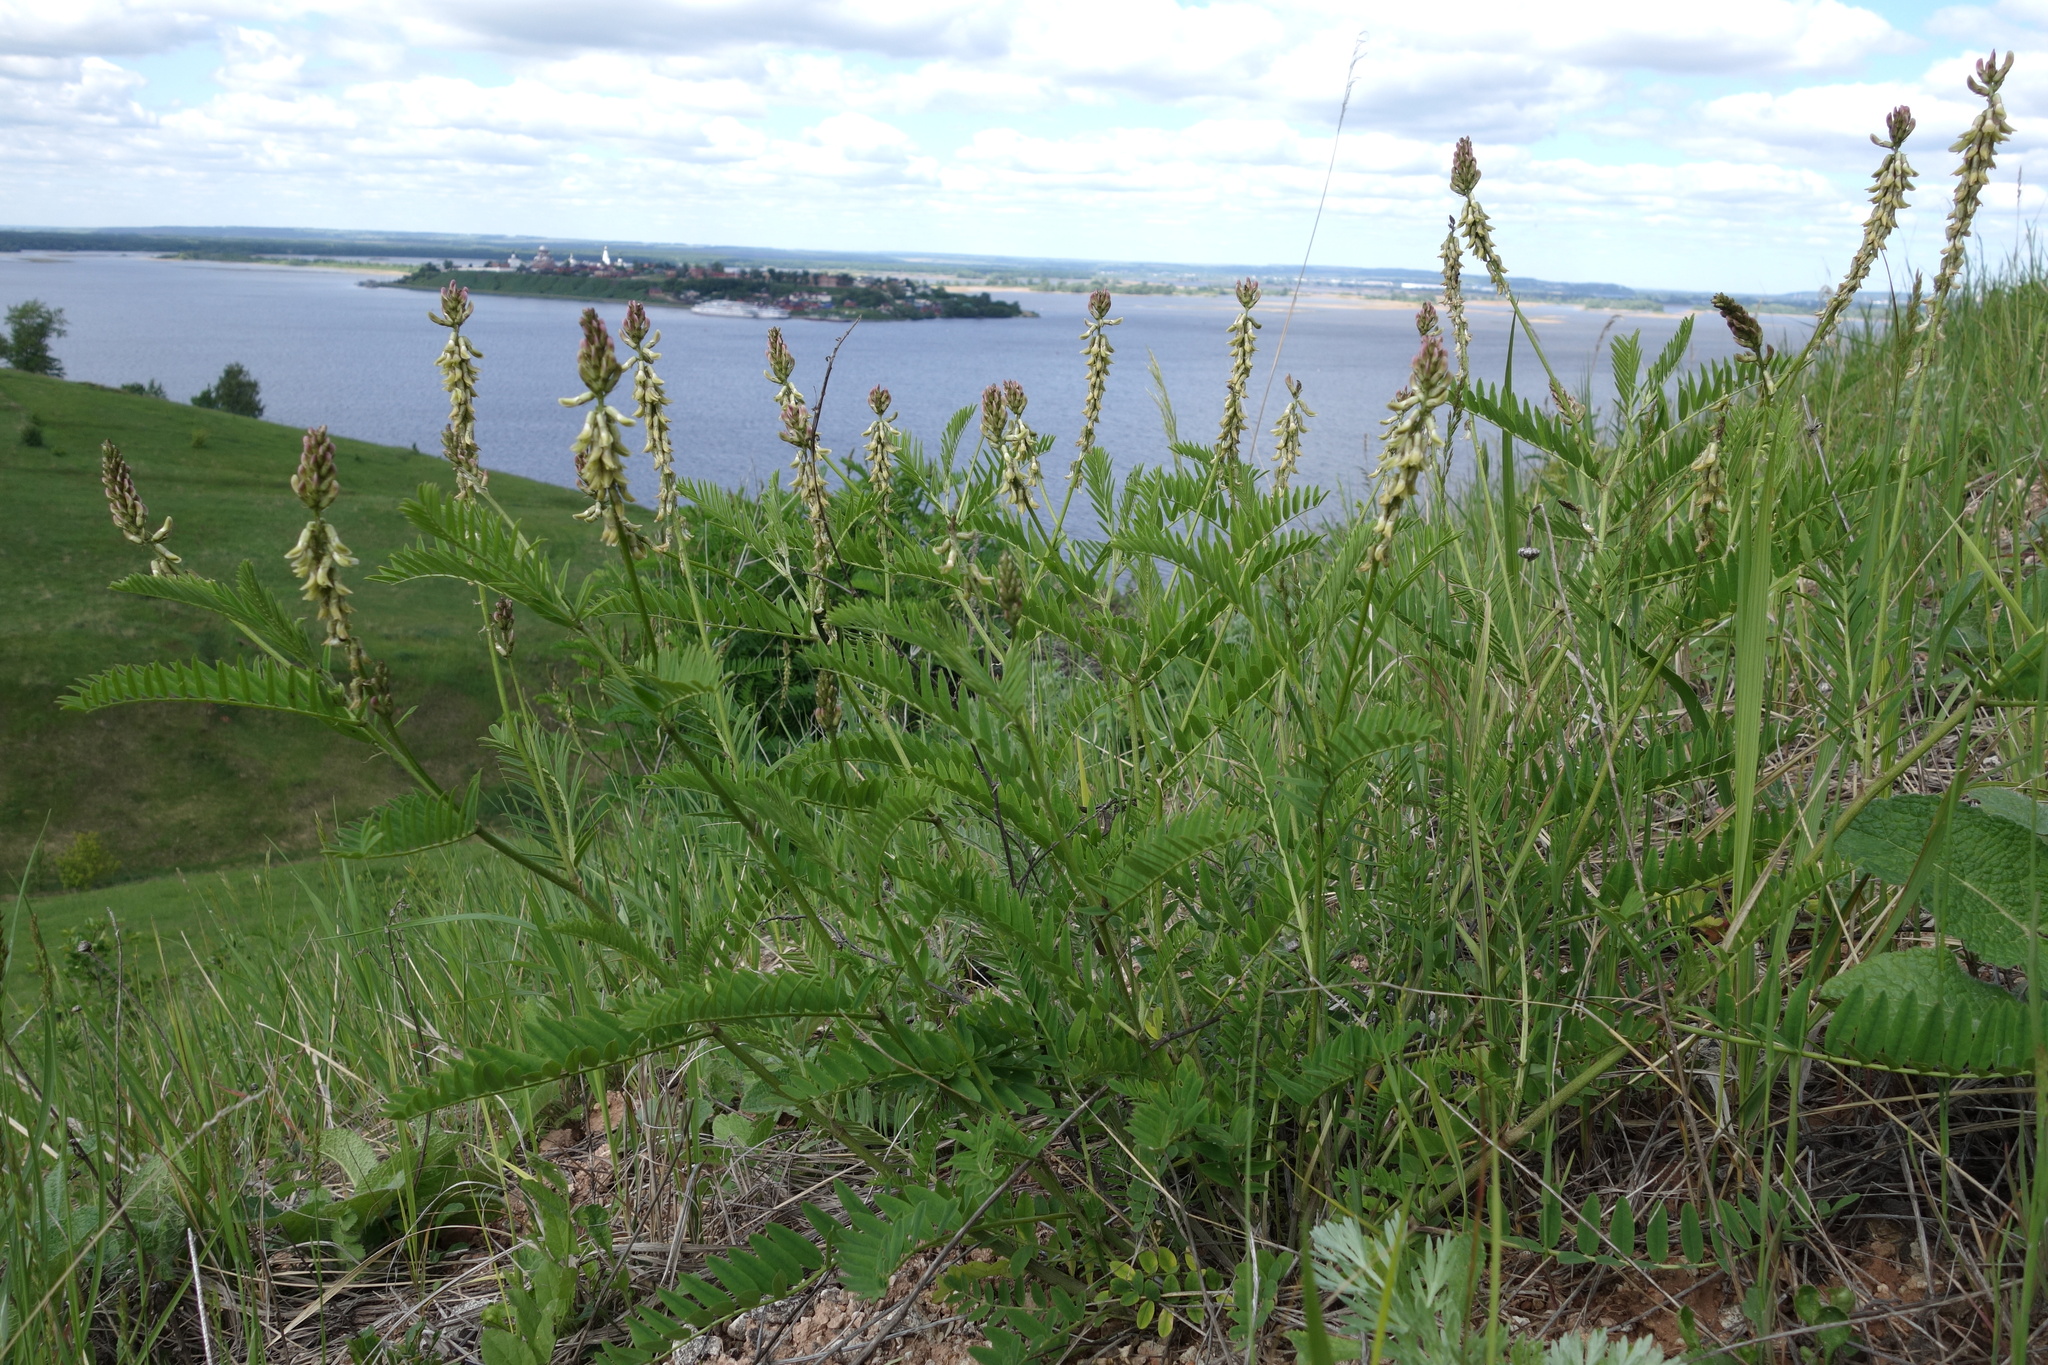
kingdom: Plantae
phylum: Tracheophyta
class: Magnoliopsida
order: Fabales
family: Fabaceae
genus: Astragalus
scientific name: Astragalus falcatus
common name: Russian sickle milk-vetch
